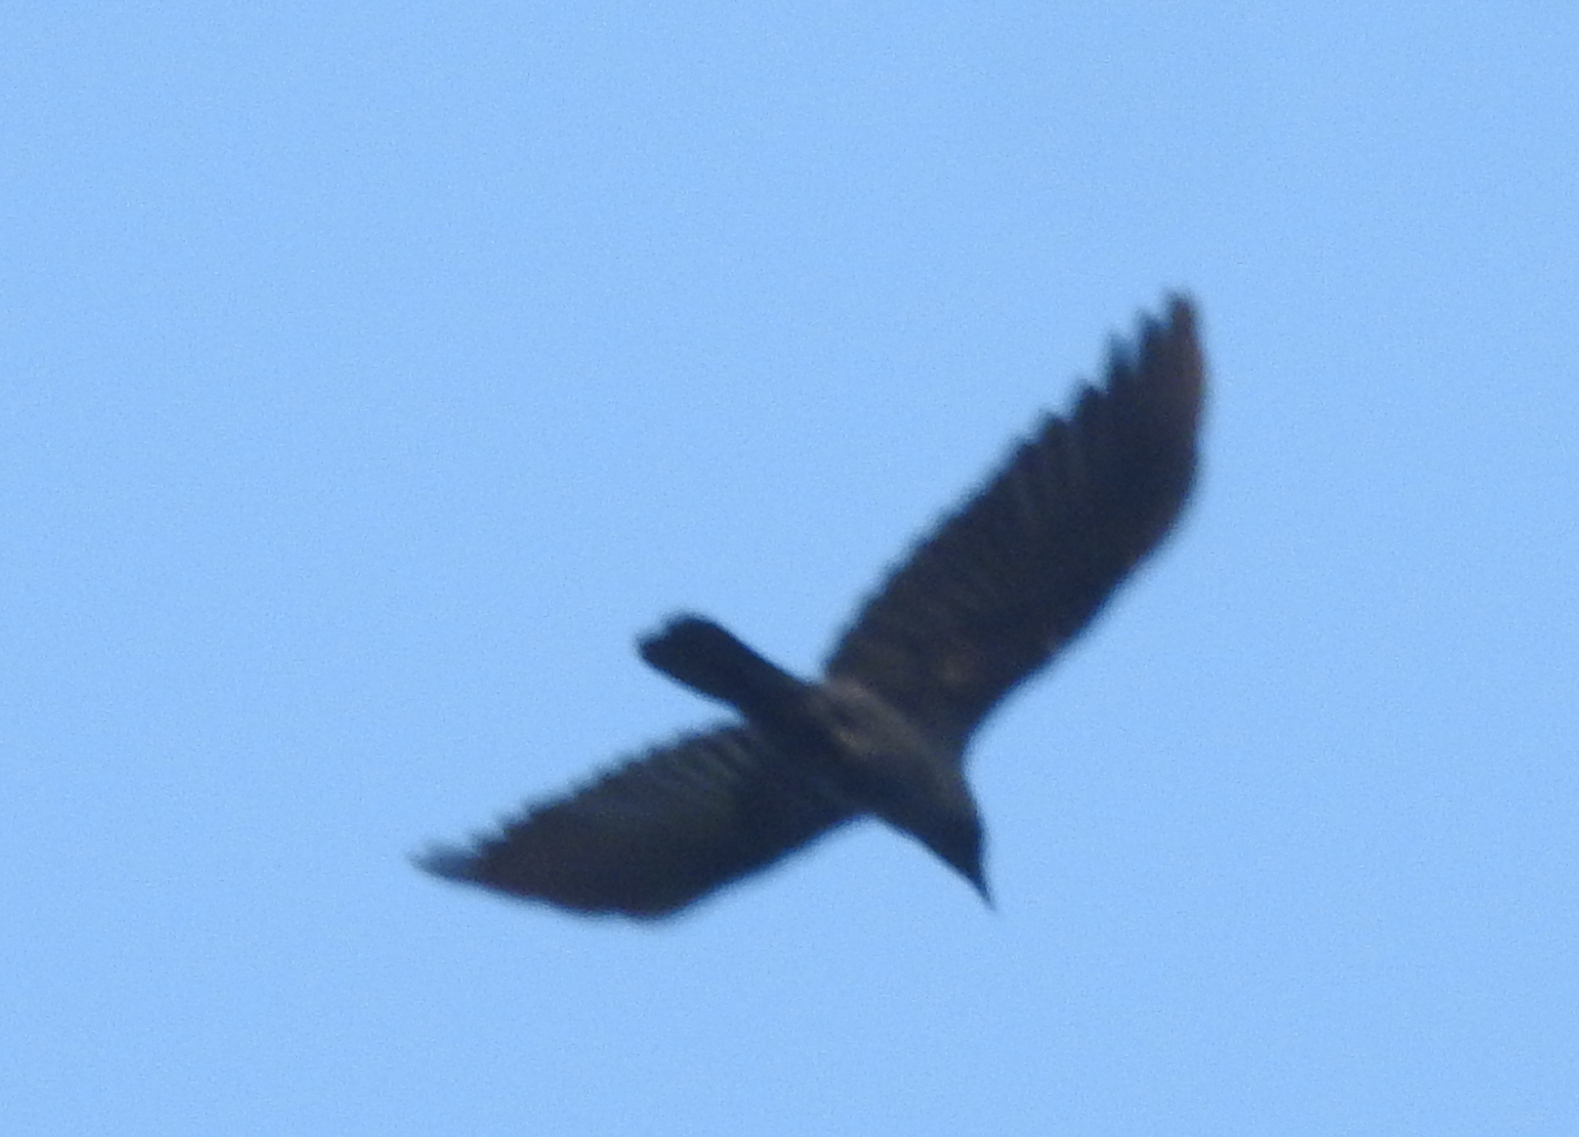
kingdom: Animalia
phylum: Chordata
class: Aves
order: Passeriformes
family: Corvidae
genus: Corvus
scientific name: Corvus splendens
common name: House crow
